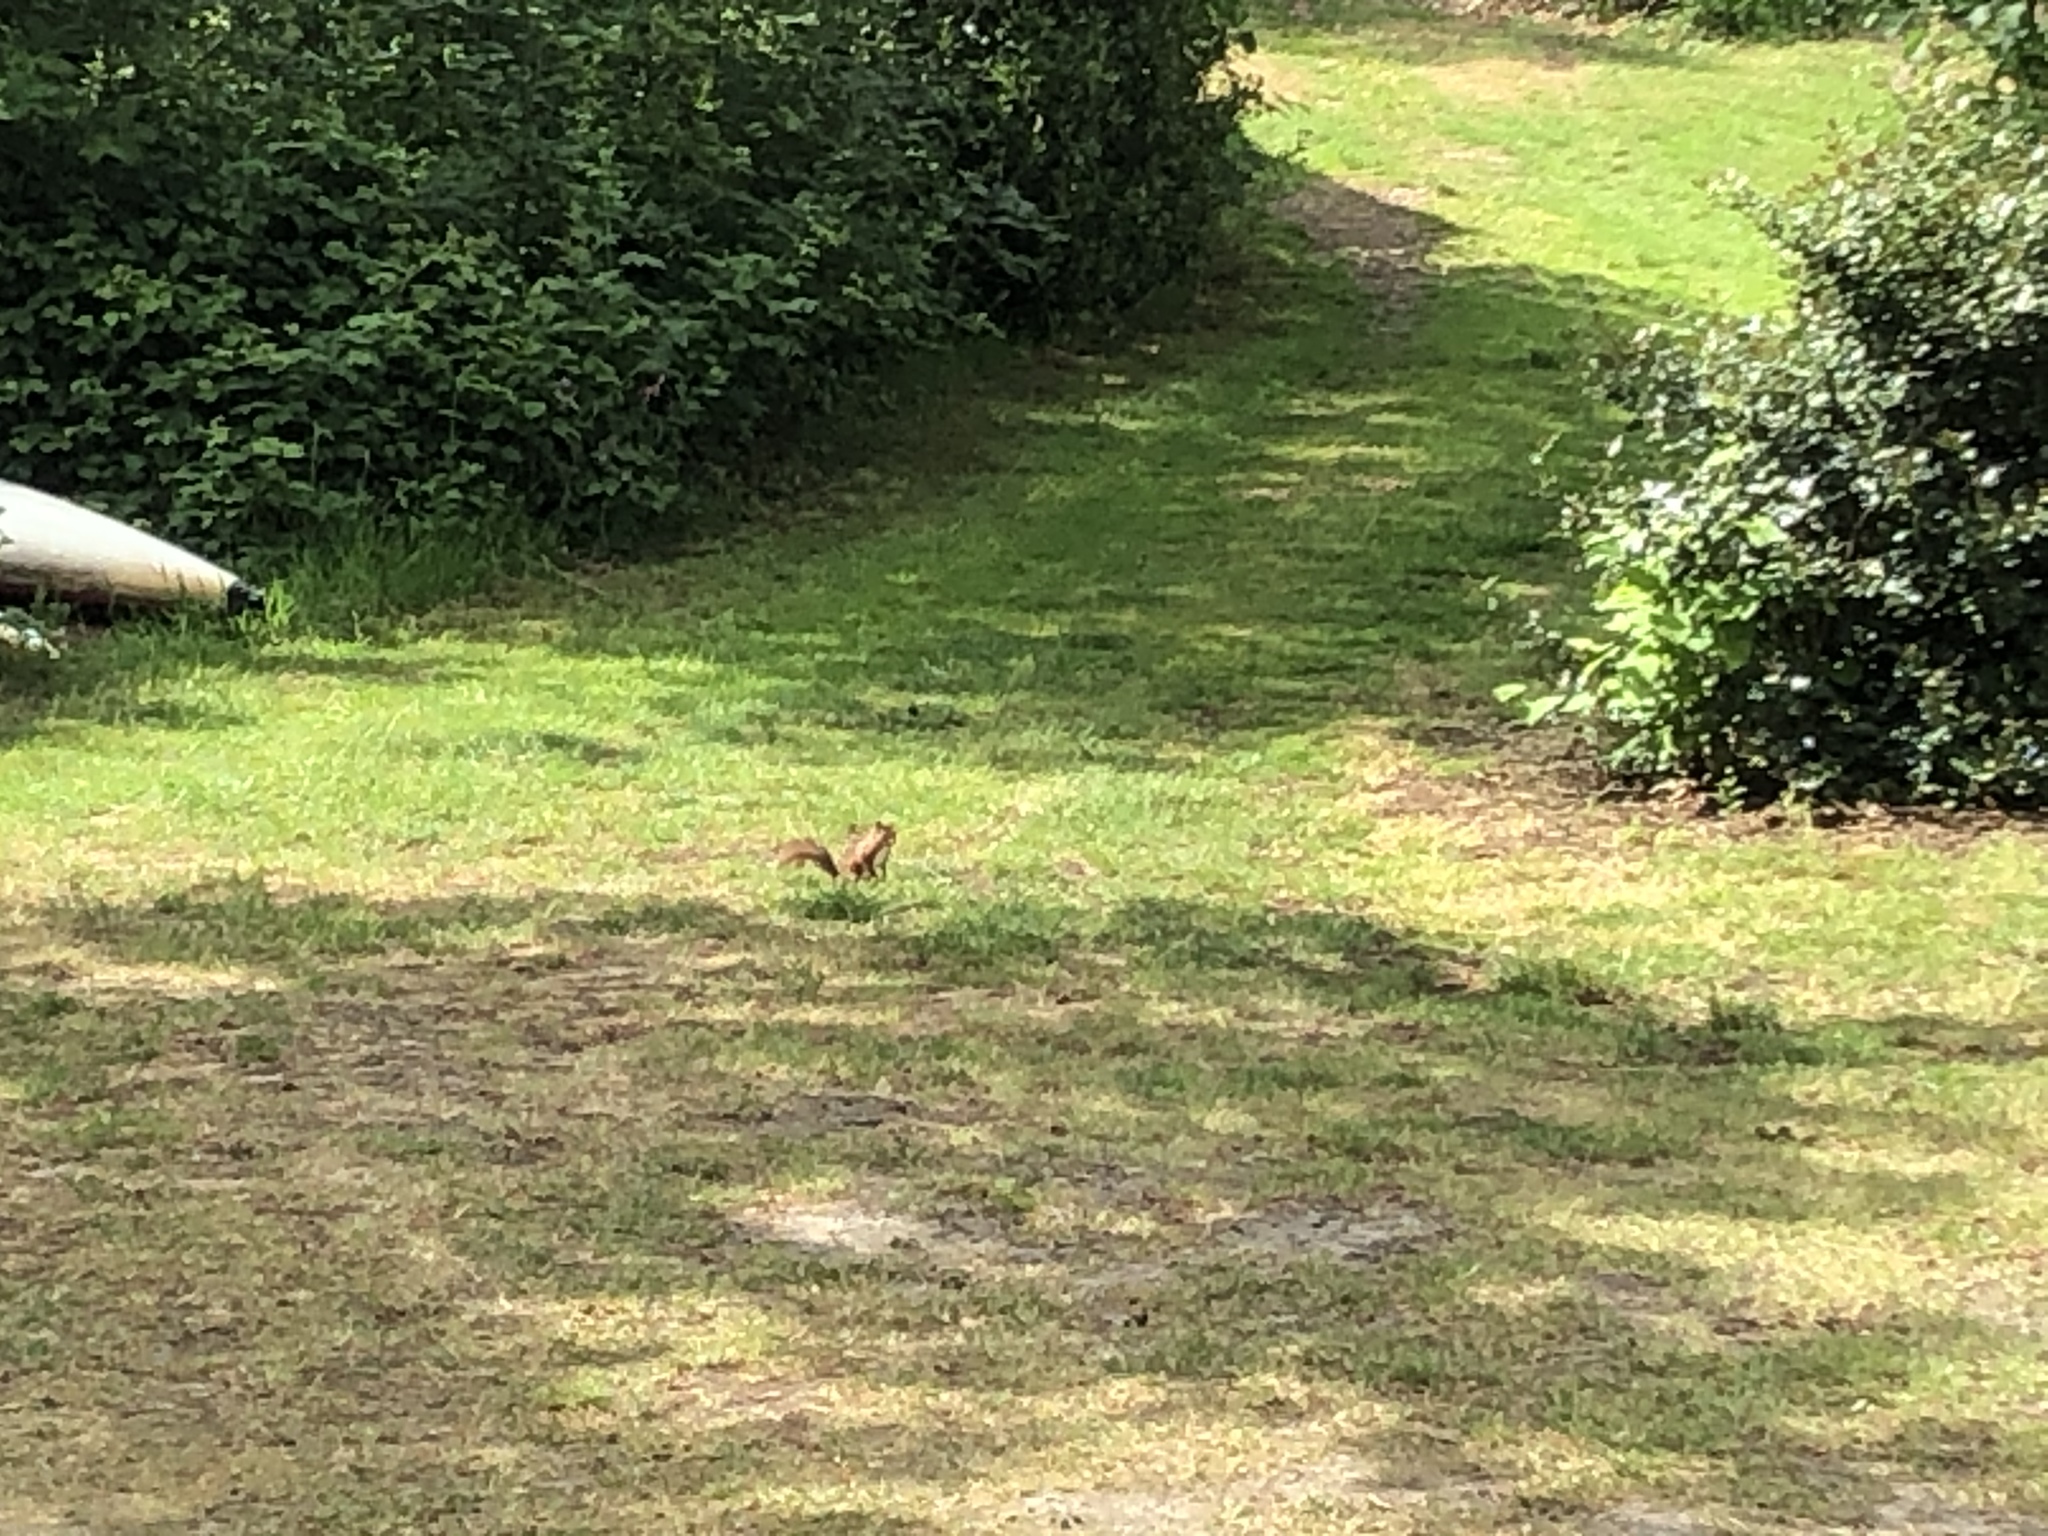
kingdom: Animalia
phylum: Chordata
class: Mammalia
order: Rodentia
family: Sciuridae
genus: Sciurus
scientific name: Sciurus vulgaris
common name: Eurasian red squirrel
